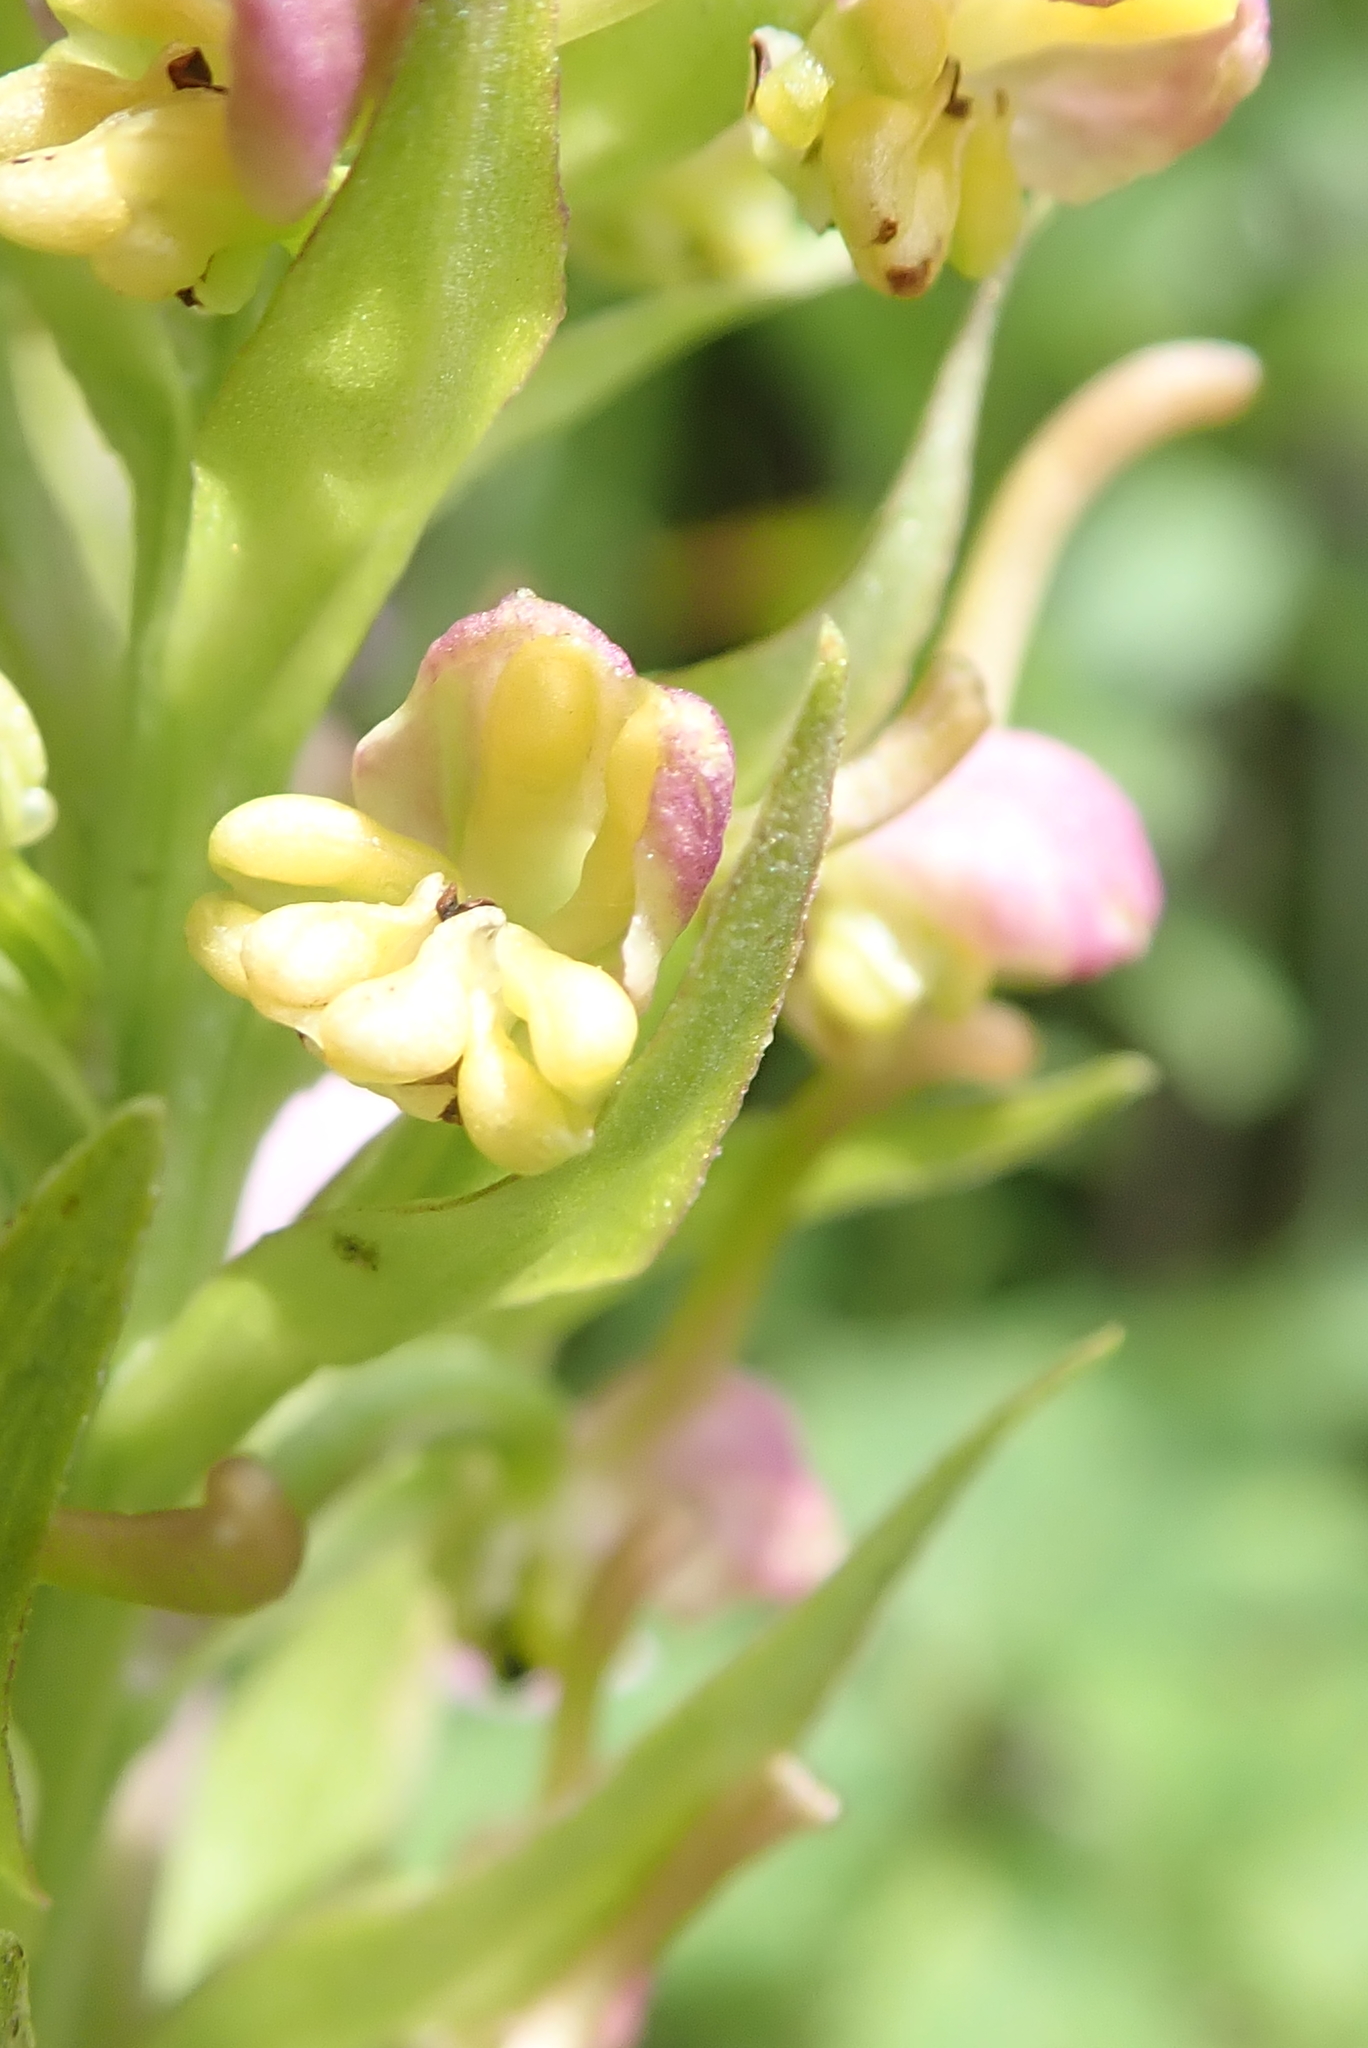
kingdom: Plantae
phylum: Tracheophyta
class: Liliopsida
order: Asparagales
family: Orchidaceae
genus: Platanthera
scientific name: Platanthera grandiflora
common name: Greater purple fringed orchid
